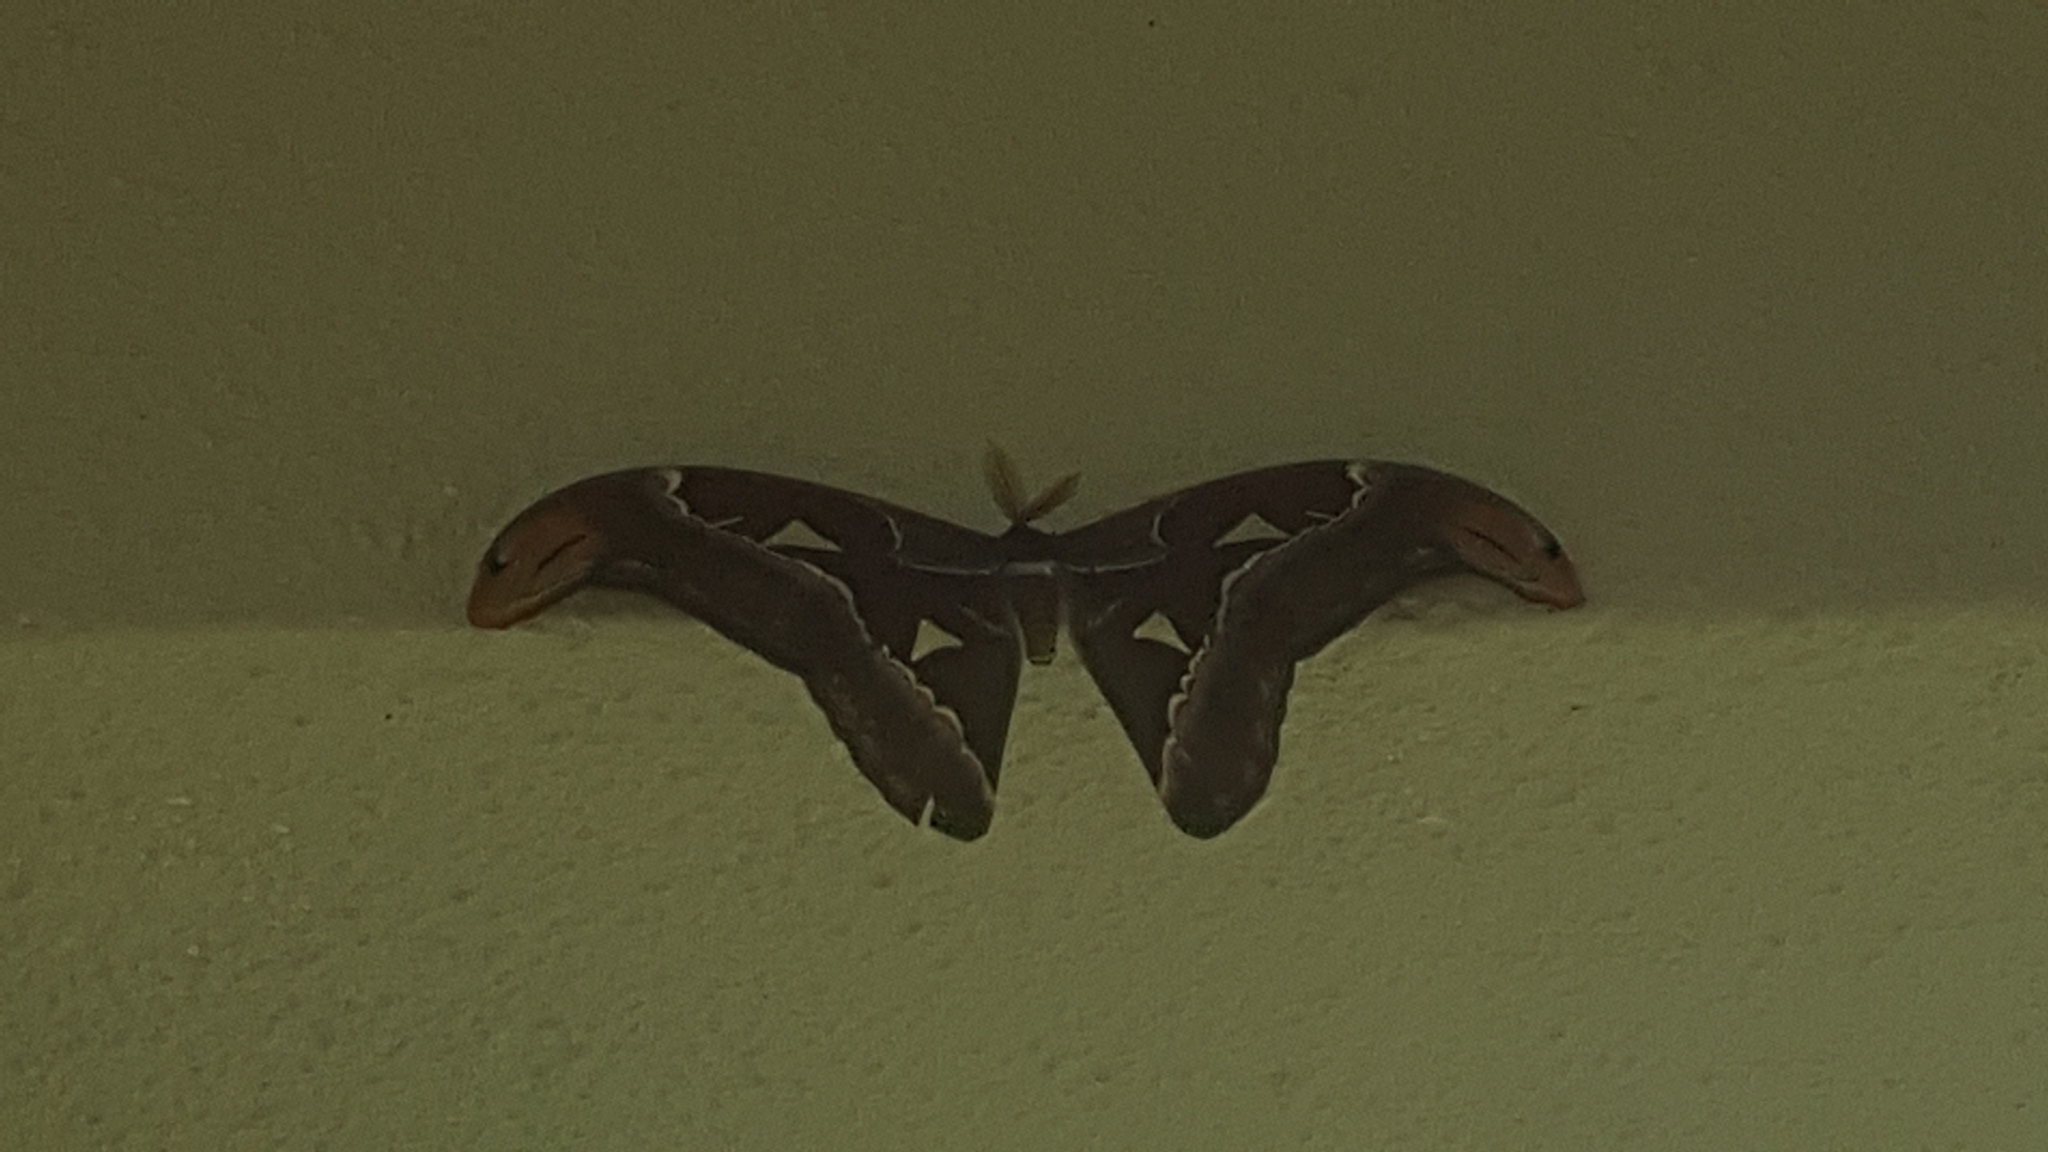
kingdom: Animalia
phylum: Arthropoda
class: Insecta
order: Lepidoptera
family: Saturniidae
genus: Attacus
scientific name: Attacus atlas
